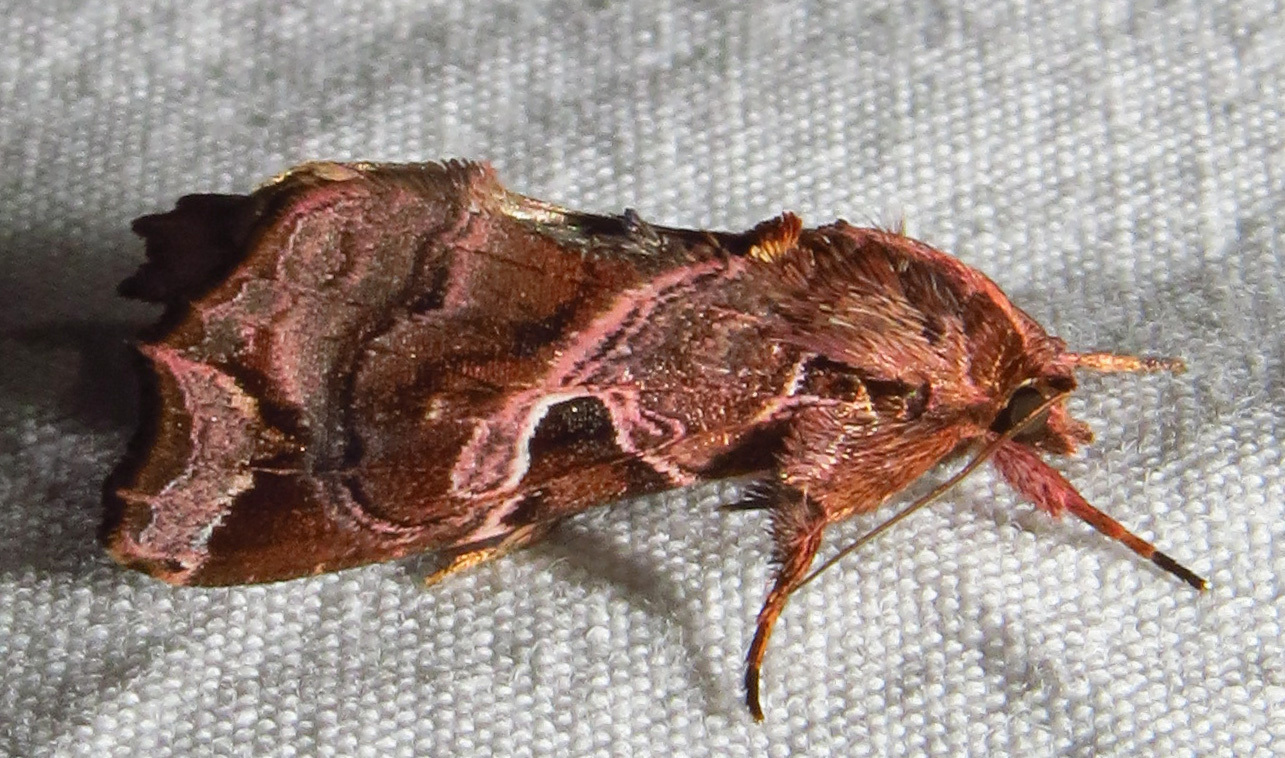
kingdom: Animalia
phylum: Arthropoda
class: Insecta
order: Lepidoptera
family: Noctuidae
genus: Callopistria
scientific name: Callopistria floridensis
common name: Florida fern moth
